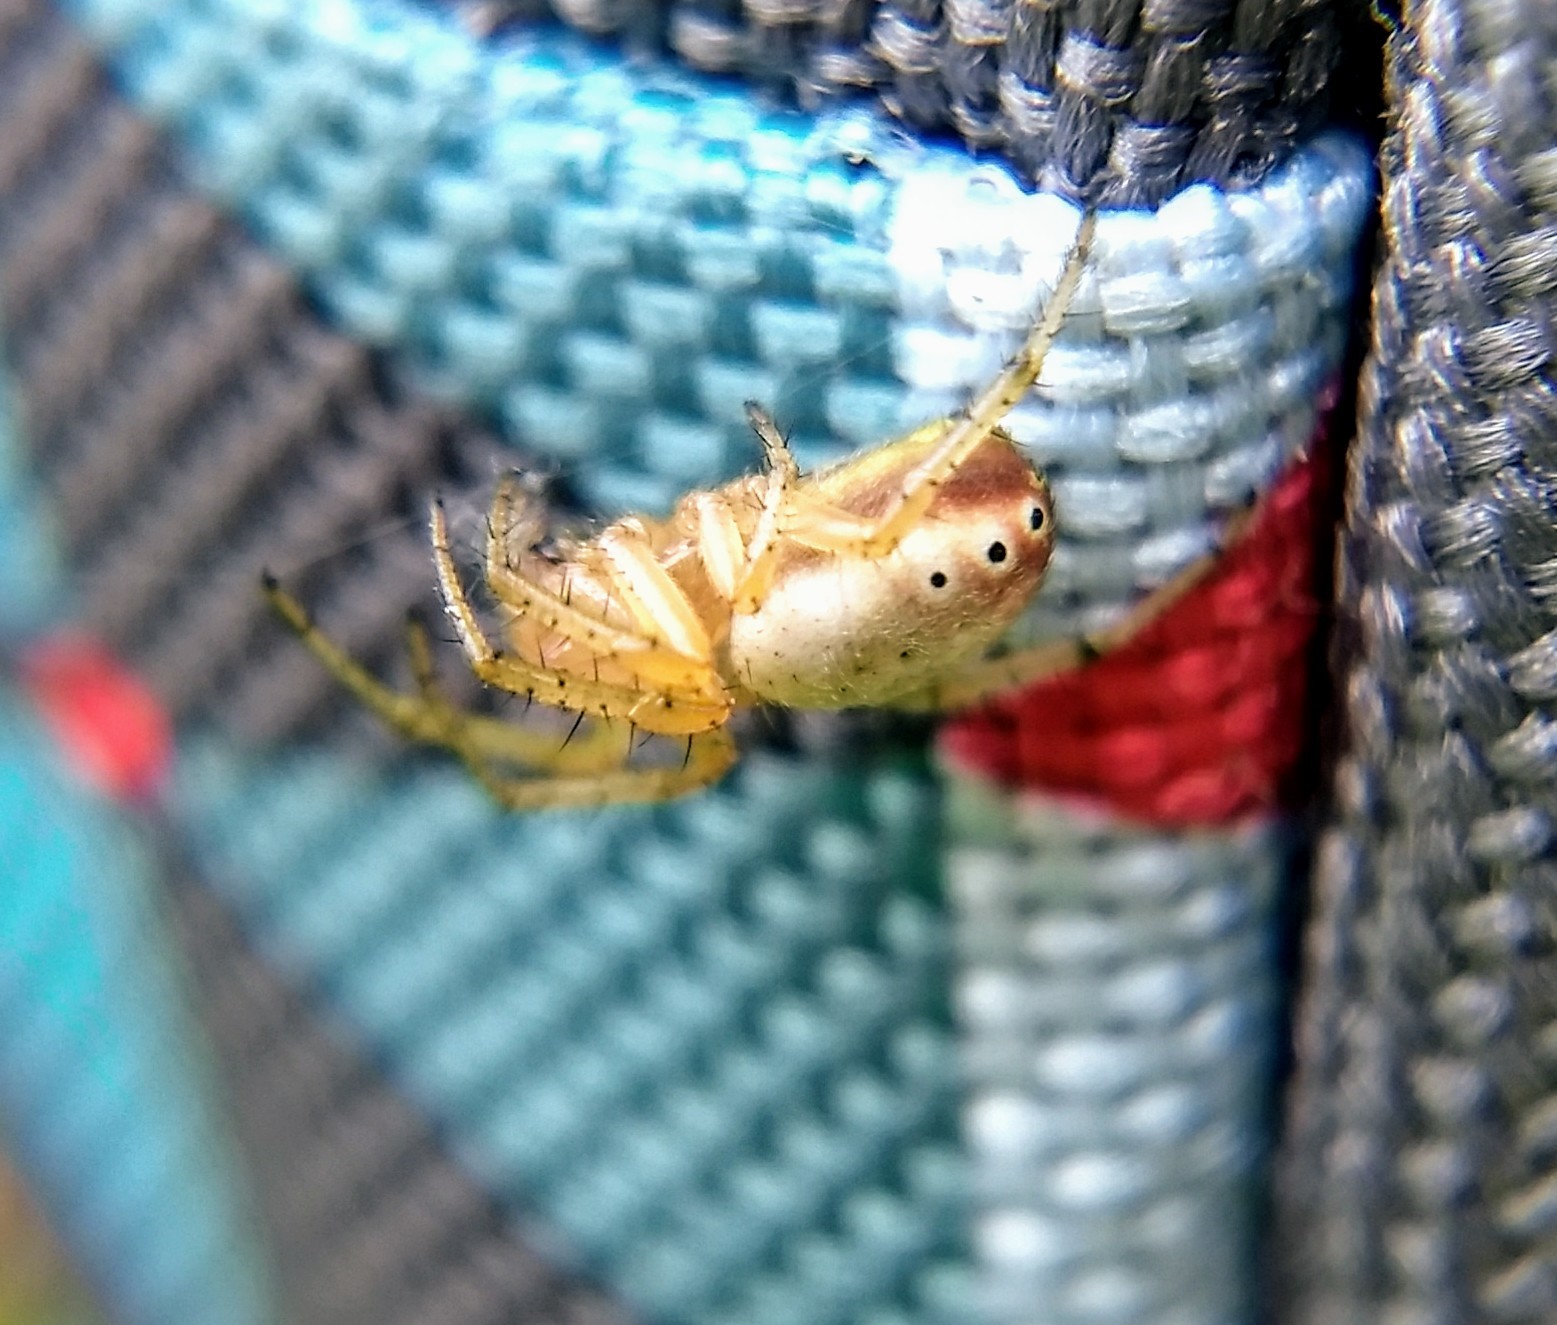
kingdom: Animalia
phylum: Arthropoda
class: Arachnida
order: Araneae
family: Araneidae
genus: Araniella
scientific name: Araniella displicata
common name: Sixspotted orb weaver
